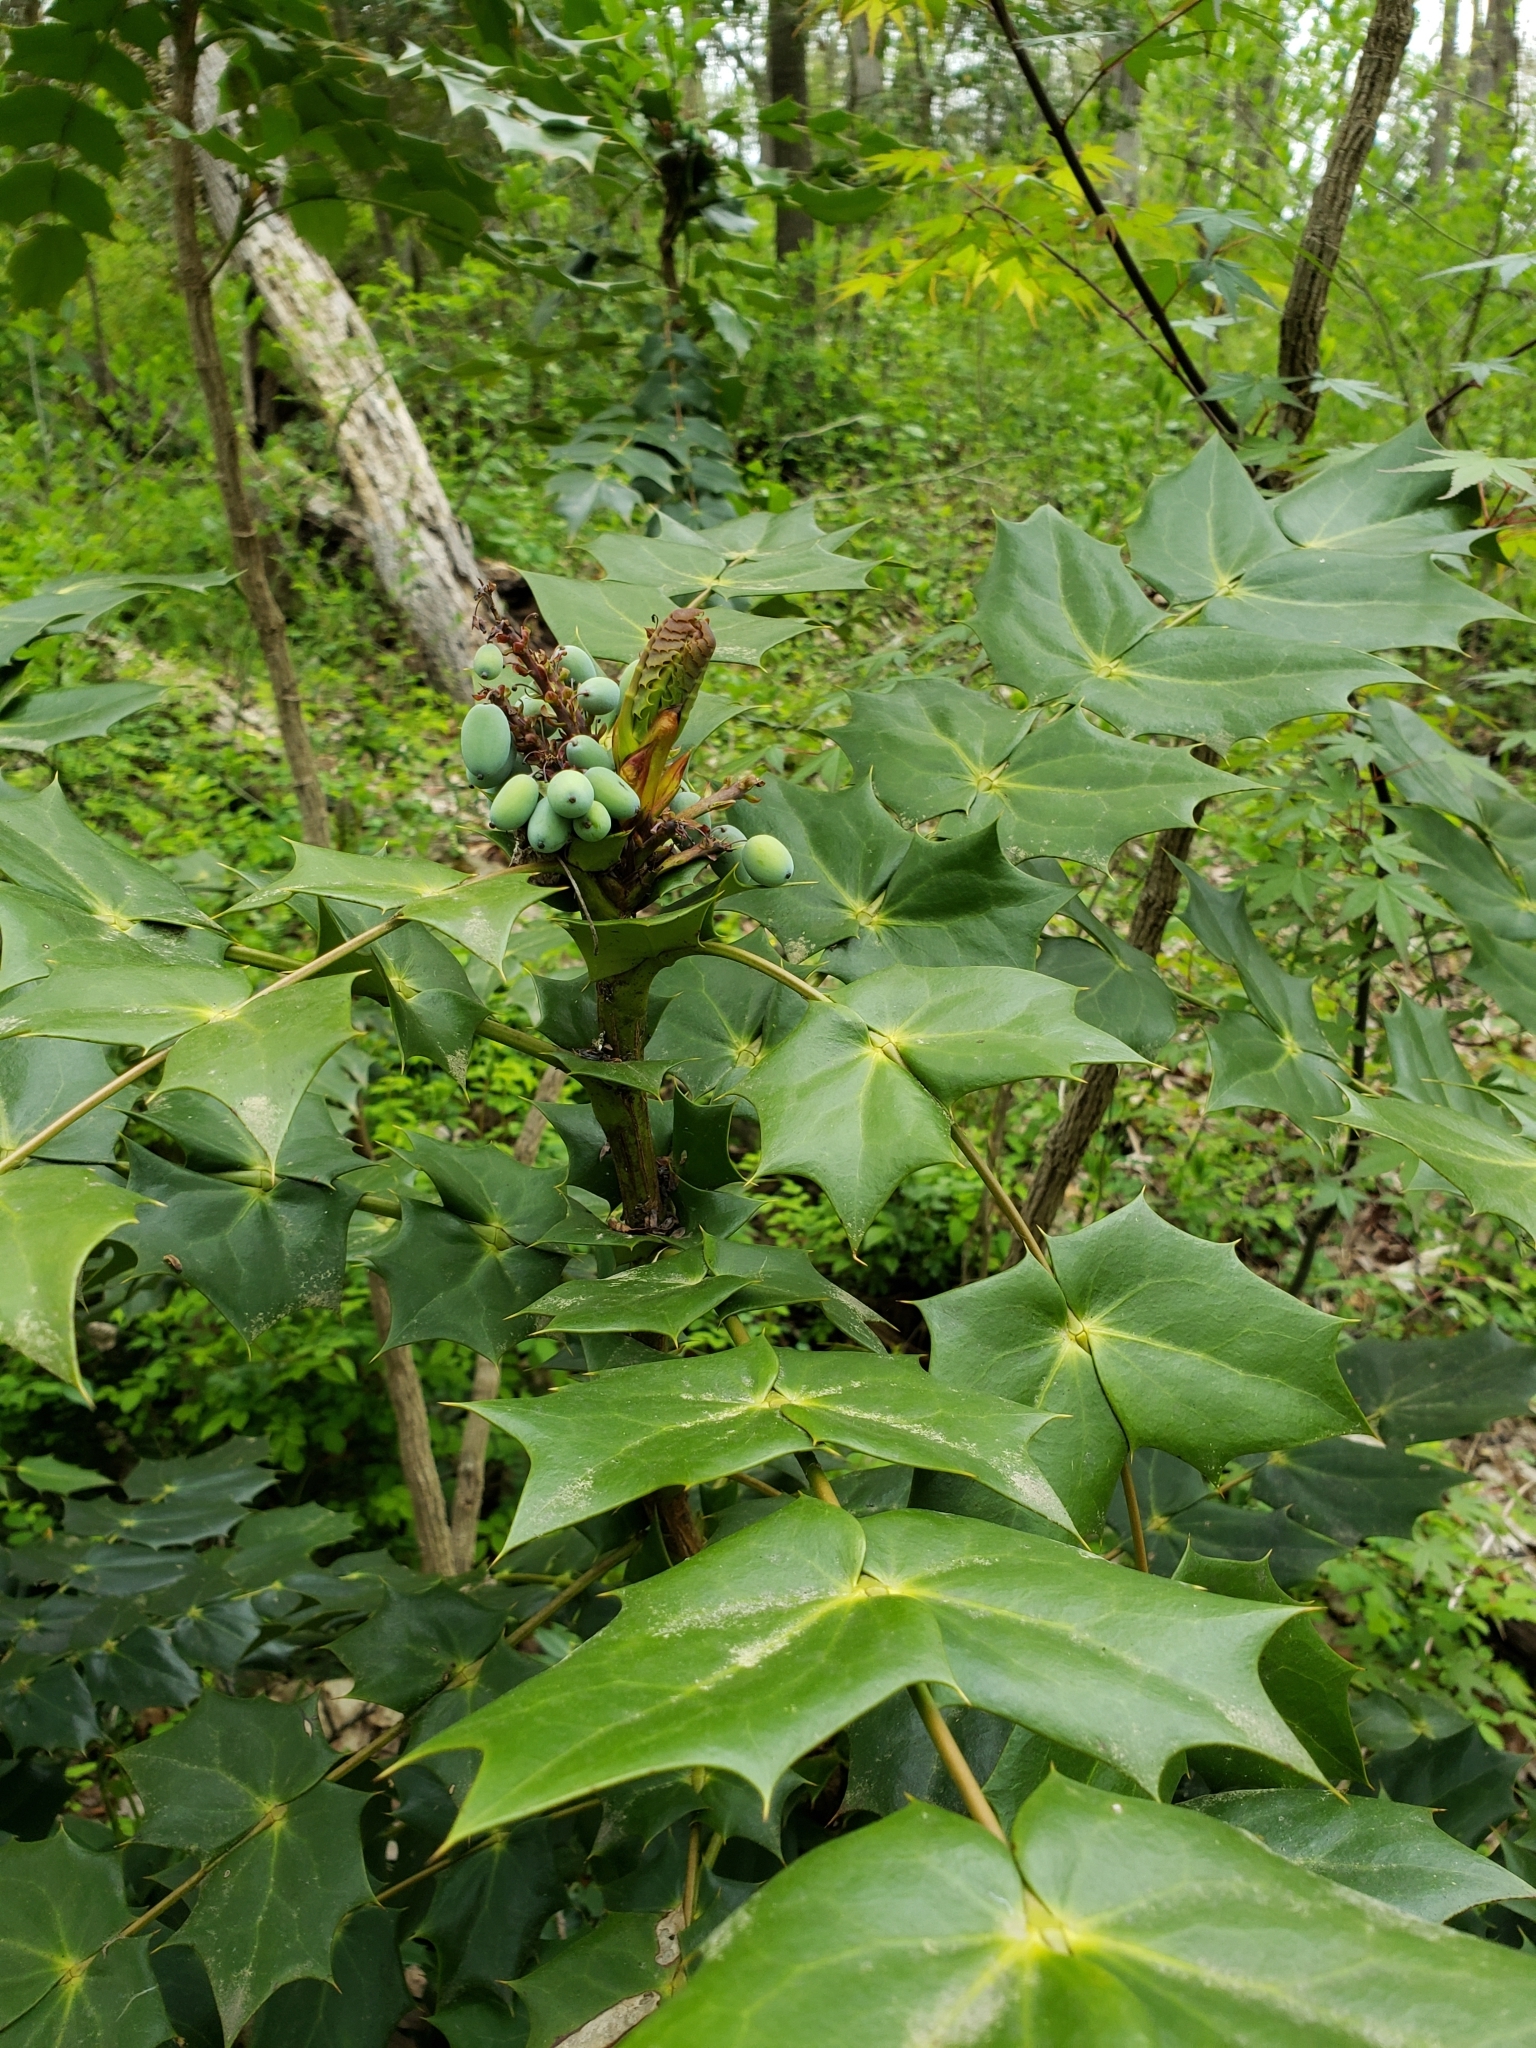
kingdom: Plantae
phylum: Tracheophyta
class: Magnoliopsida
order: Ranunculales
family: Berberidaceae
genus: Mahonia
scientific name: Mahonia bealei
